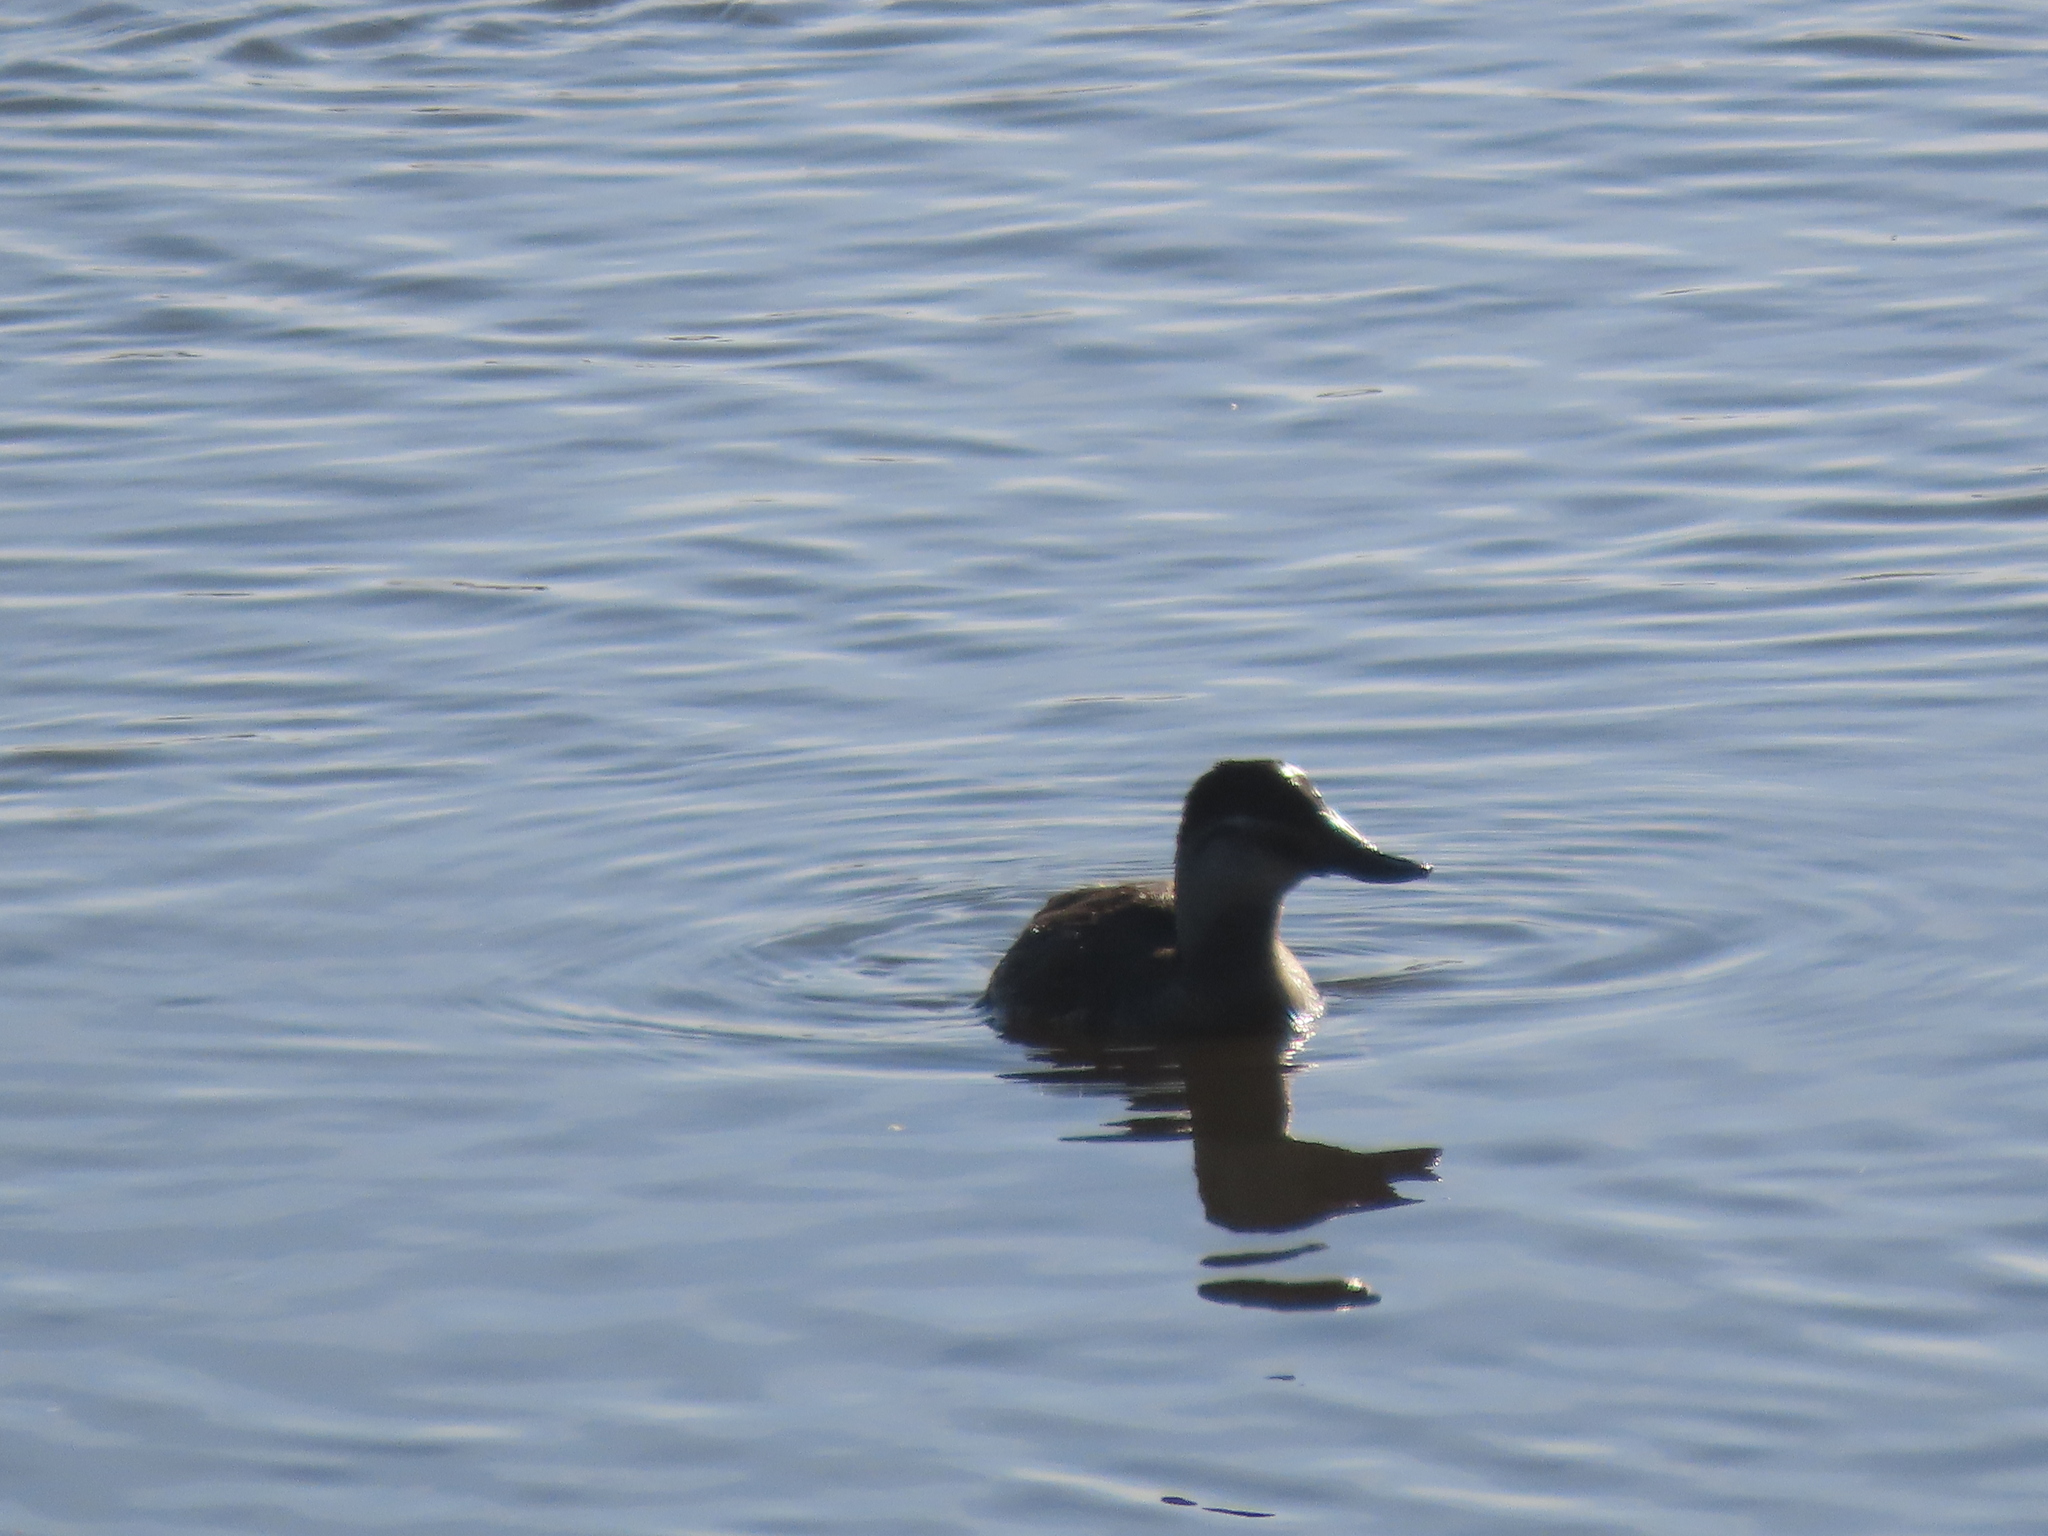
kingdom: Animalia
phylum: Chordata
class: Aves
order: Anseriformes
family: Anatidae
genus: Oxyura
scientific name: Oxyura jamaicensis
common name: Ruddy duck
